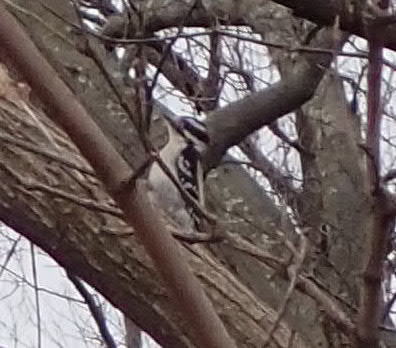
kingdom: Animalia
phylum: Chordata
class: Aves
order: Piciformes
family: Picidae
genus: Dryobates
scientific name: Dryobates pubescens
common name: Downy woodpecker
